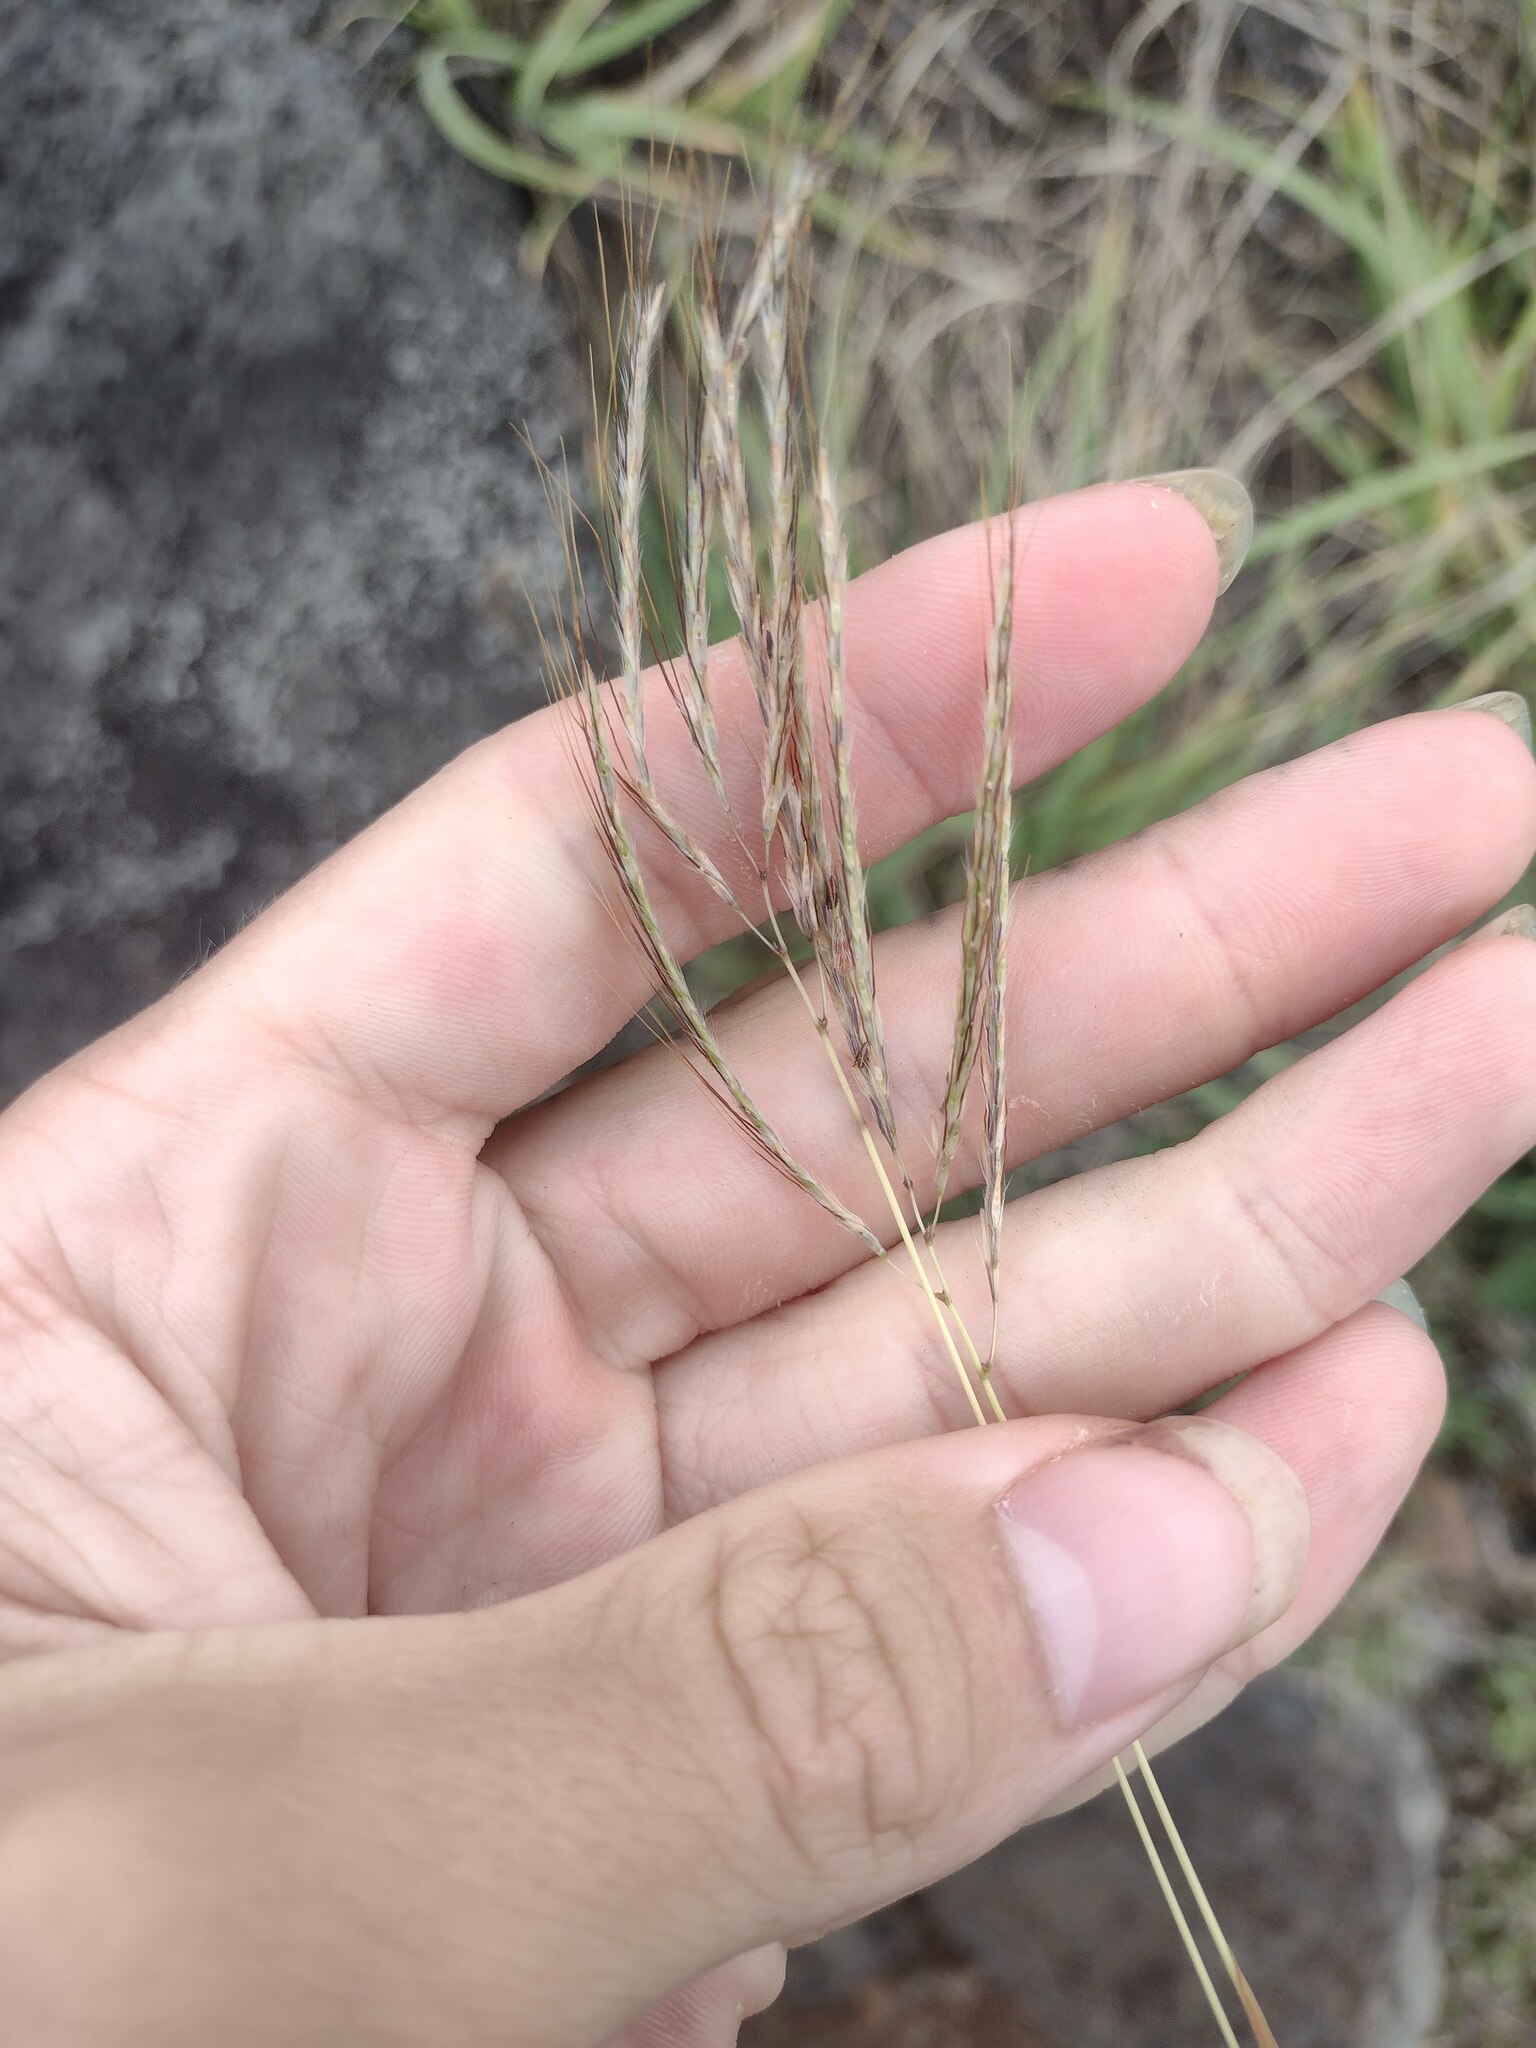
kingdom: Plantae
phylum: Tracheophyta
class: Liliopsida
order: Poales
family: Poaceae
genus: Bothriochloa
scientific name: Bothriochloa pertusa
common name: Pitted beardgrass
